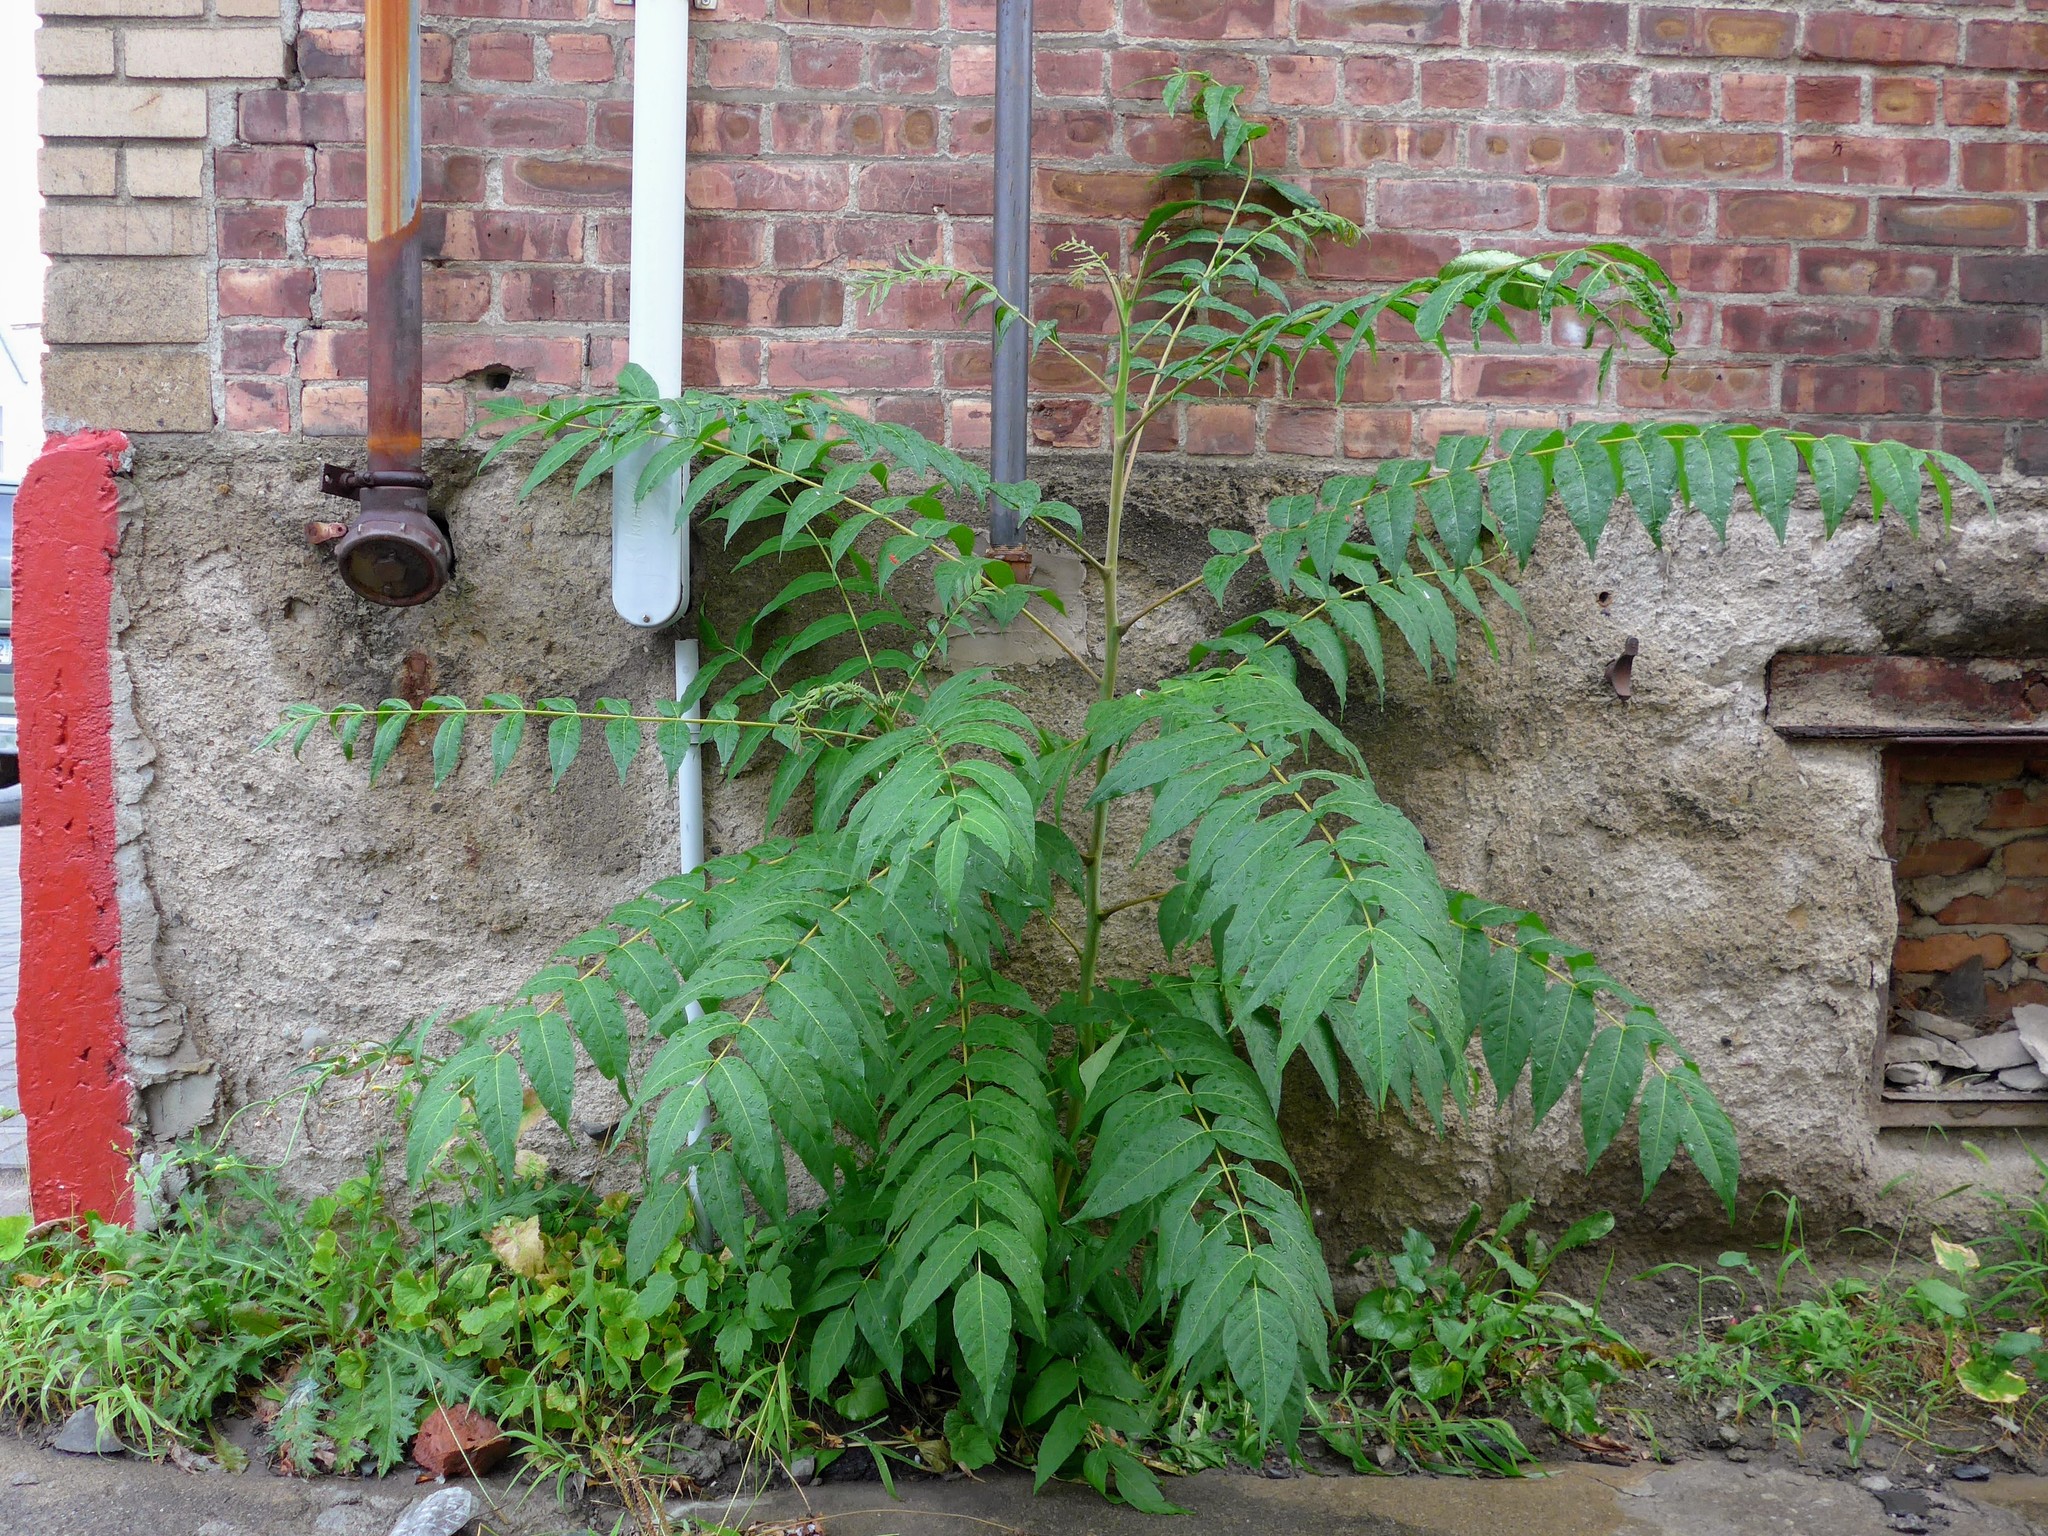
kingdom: Plantae
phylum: Tracheophyta
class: Magnoliopsida
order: Sapindales
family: Simaroubaceae
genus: Ailanthus
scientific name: Ailanthus altissima
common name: Tree-of-heaven
